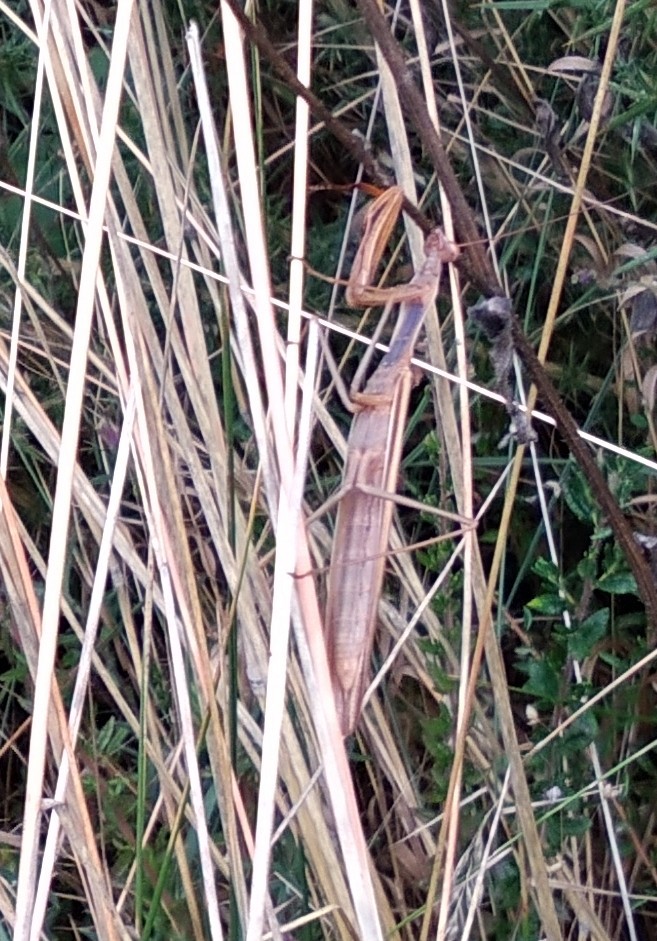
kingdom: Animalia
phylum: Arthropoda
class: Insecta
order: Mantodea
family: Mantidae
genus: Mantis
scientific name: Mantis religiosa
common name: Praying mantis
